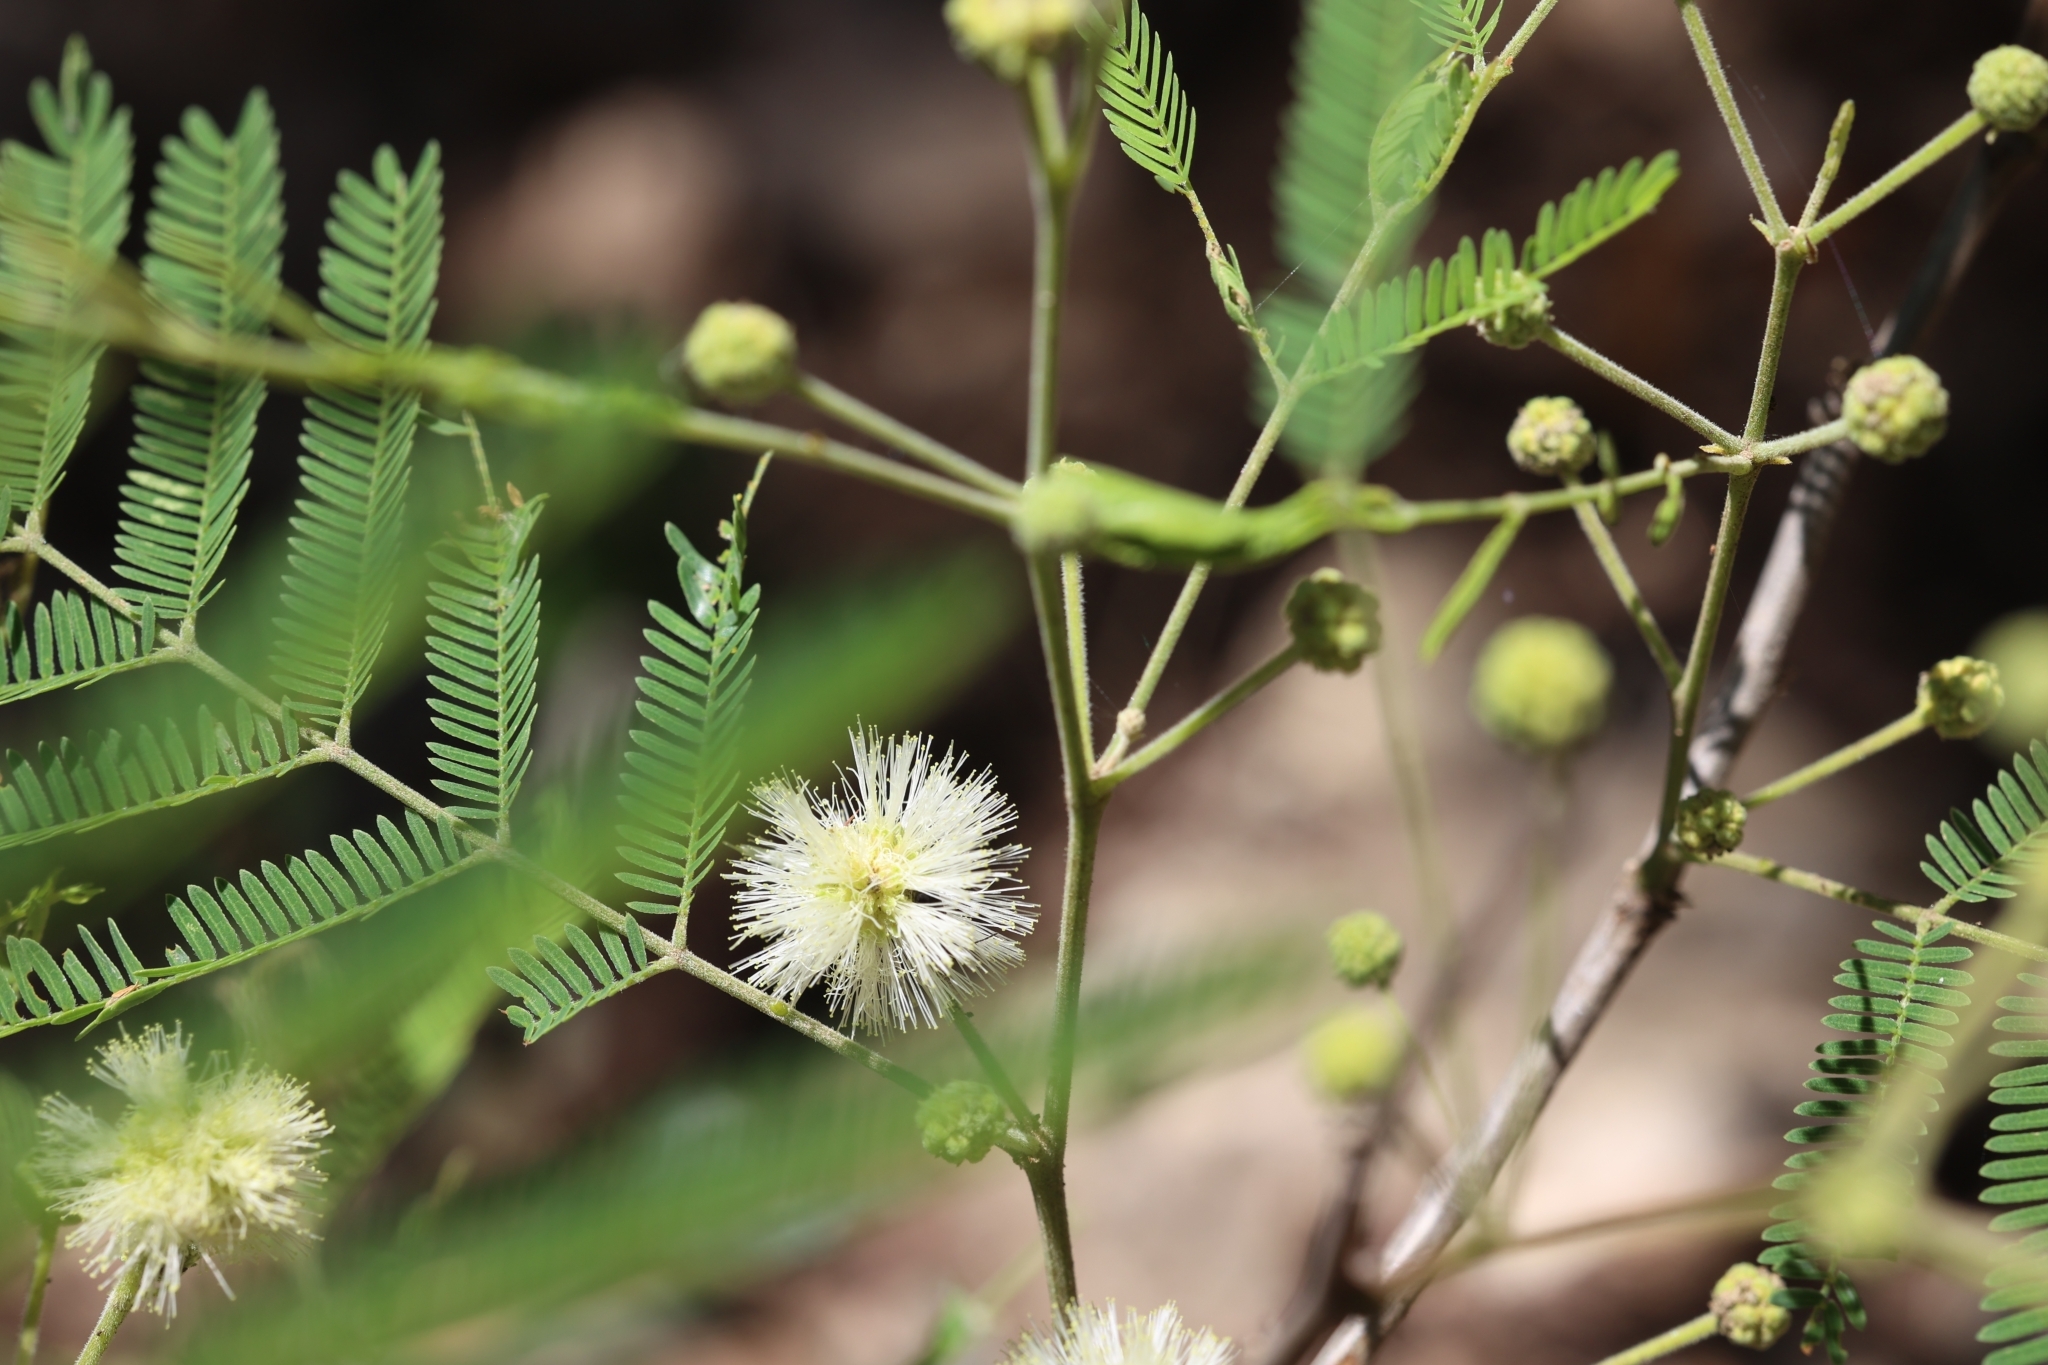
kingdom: Plantae
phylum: Tracheophyta
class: Magnoliopsida
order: Fabales
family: Fabaceae
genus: Senegalia
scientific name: Senegalia berlandieri
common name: Berlandier acacia
